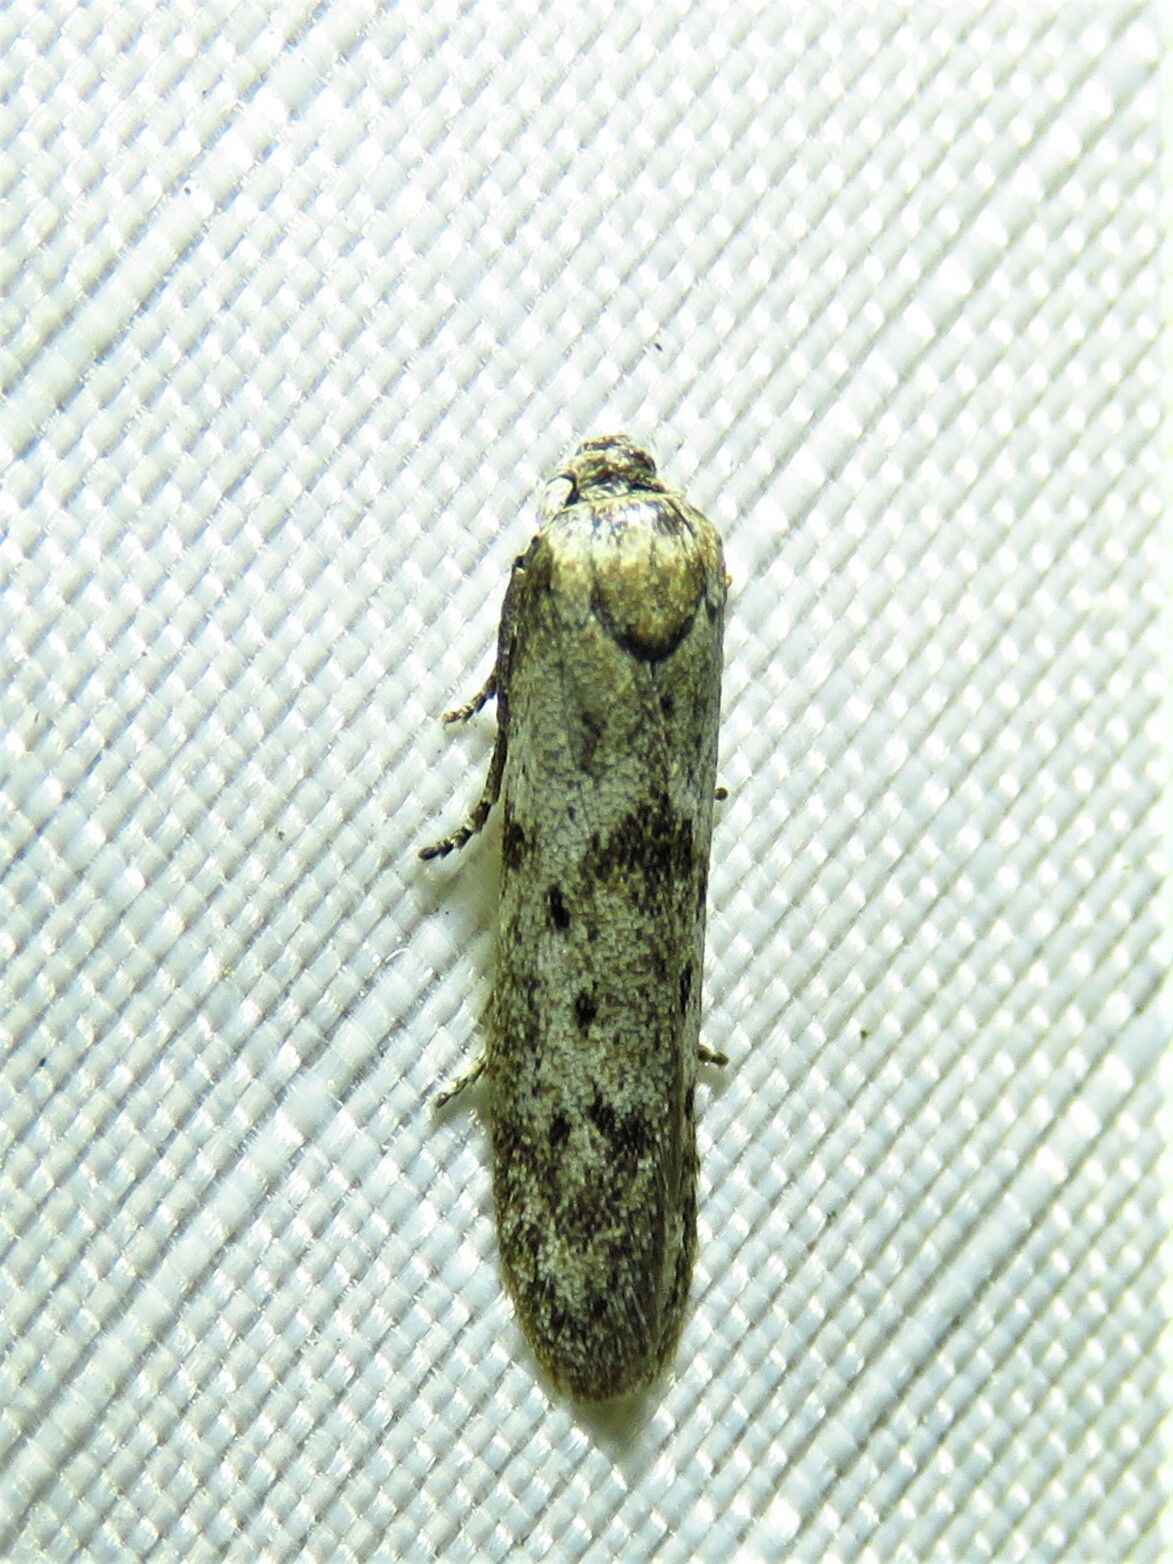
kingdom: Animalia
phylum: Arthropoda
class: Insecta
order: Lepidoptera
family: Blastobasidae
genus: Hypatopa
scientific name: Hypatopa punctiferella
